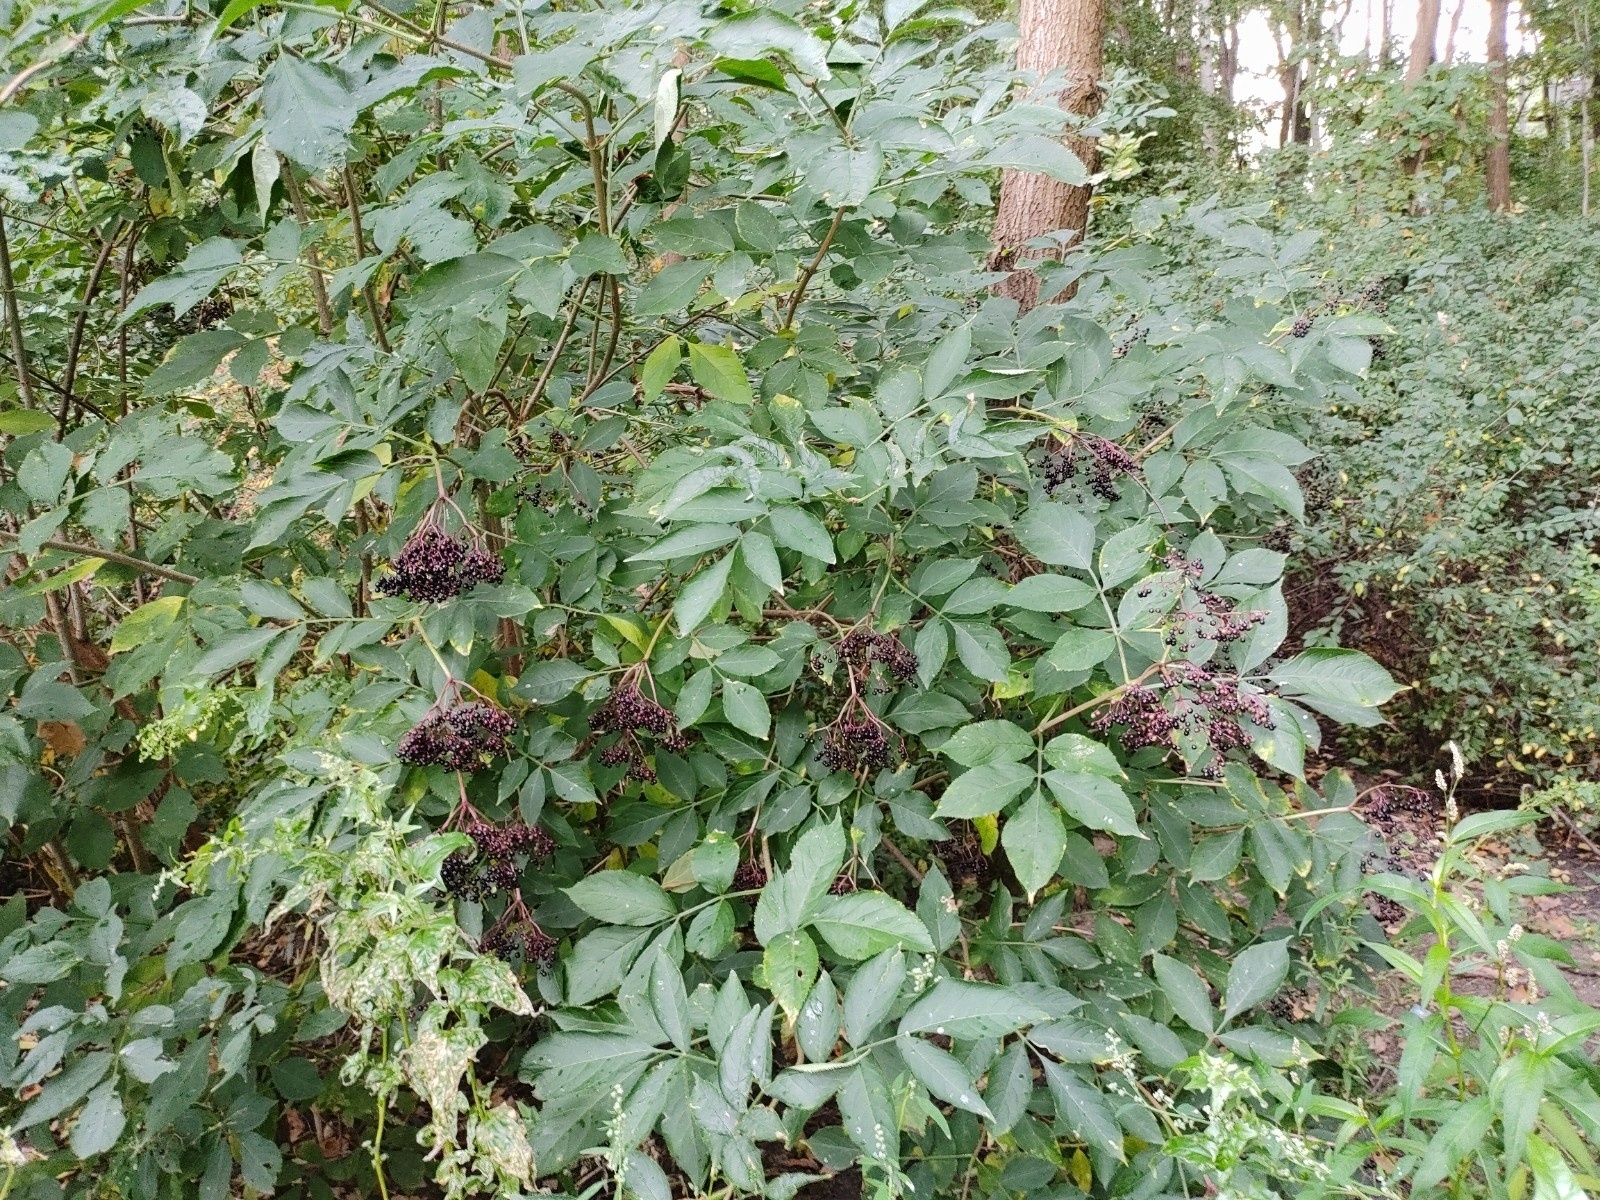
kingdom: Plantae
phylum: Tracheophyta
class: Magnoliopsida
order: Dipsacales
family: Viburnaceae
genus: Sambucus
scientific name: Sambucus nigra
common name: Elder
